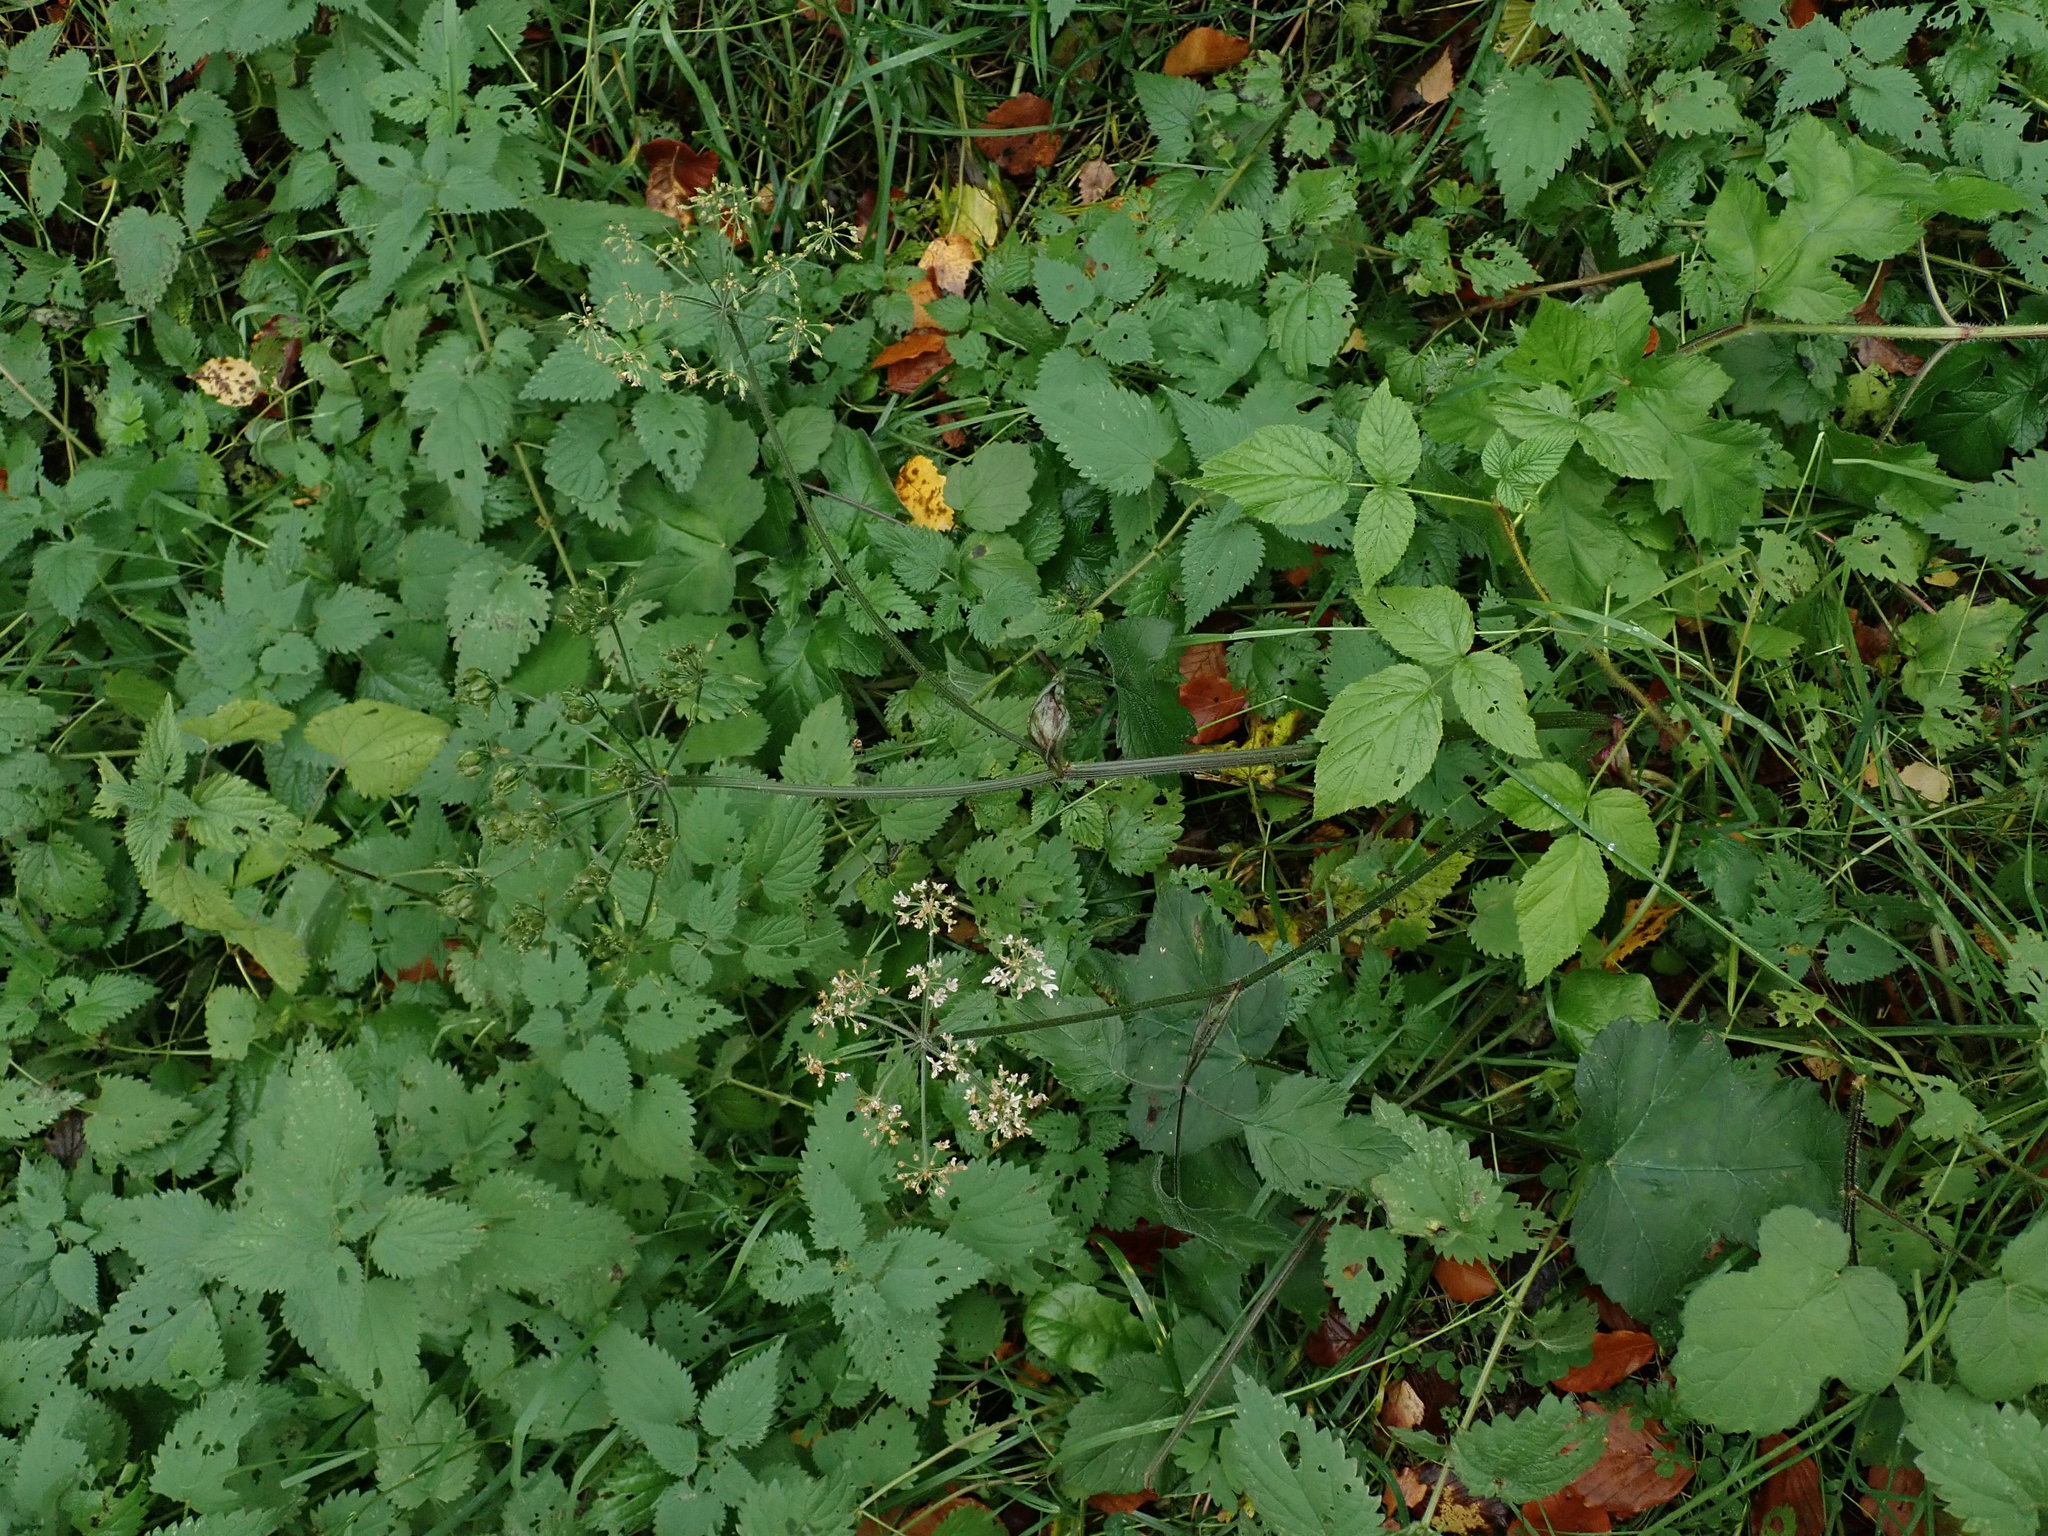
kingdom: Plantae
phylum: Tracheophyta
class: Magnoliopsida
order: Apiales
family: Apiaceae
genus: Heracleum
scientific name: Heracleum sphondylium
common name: Hogweed
